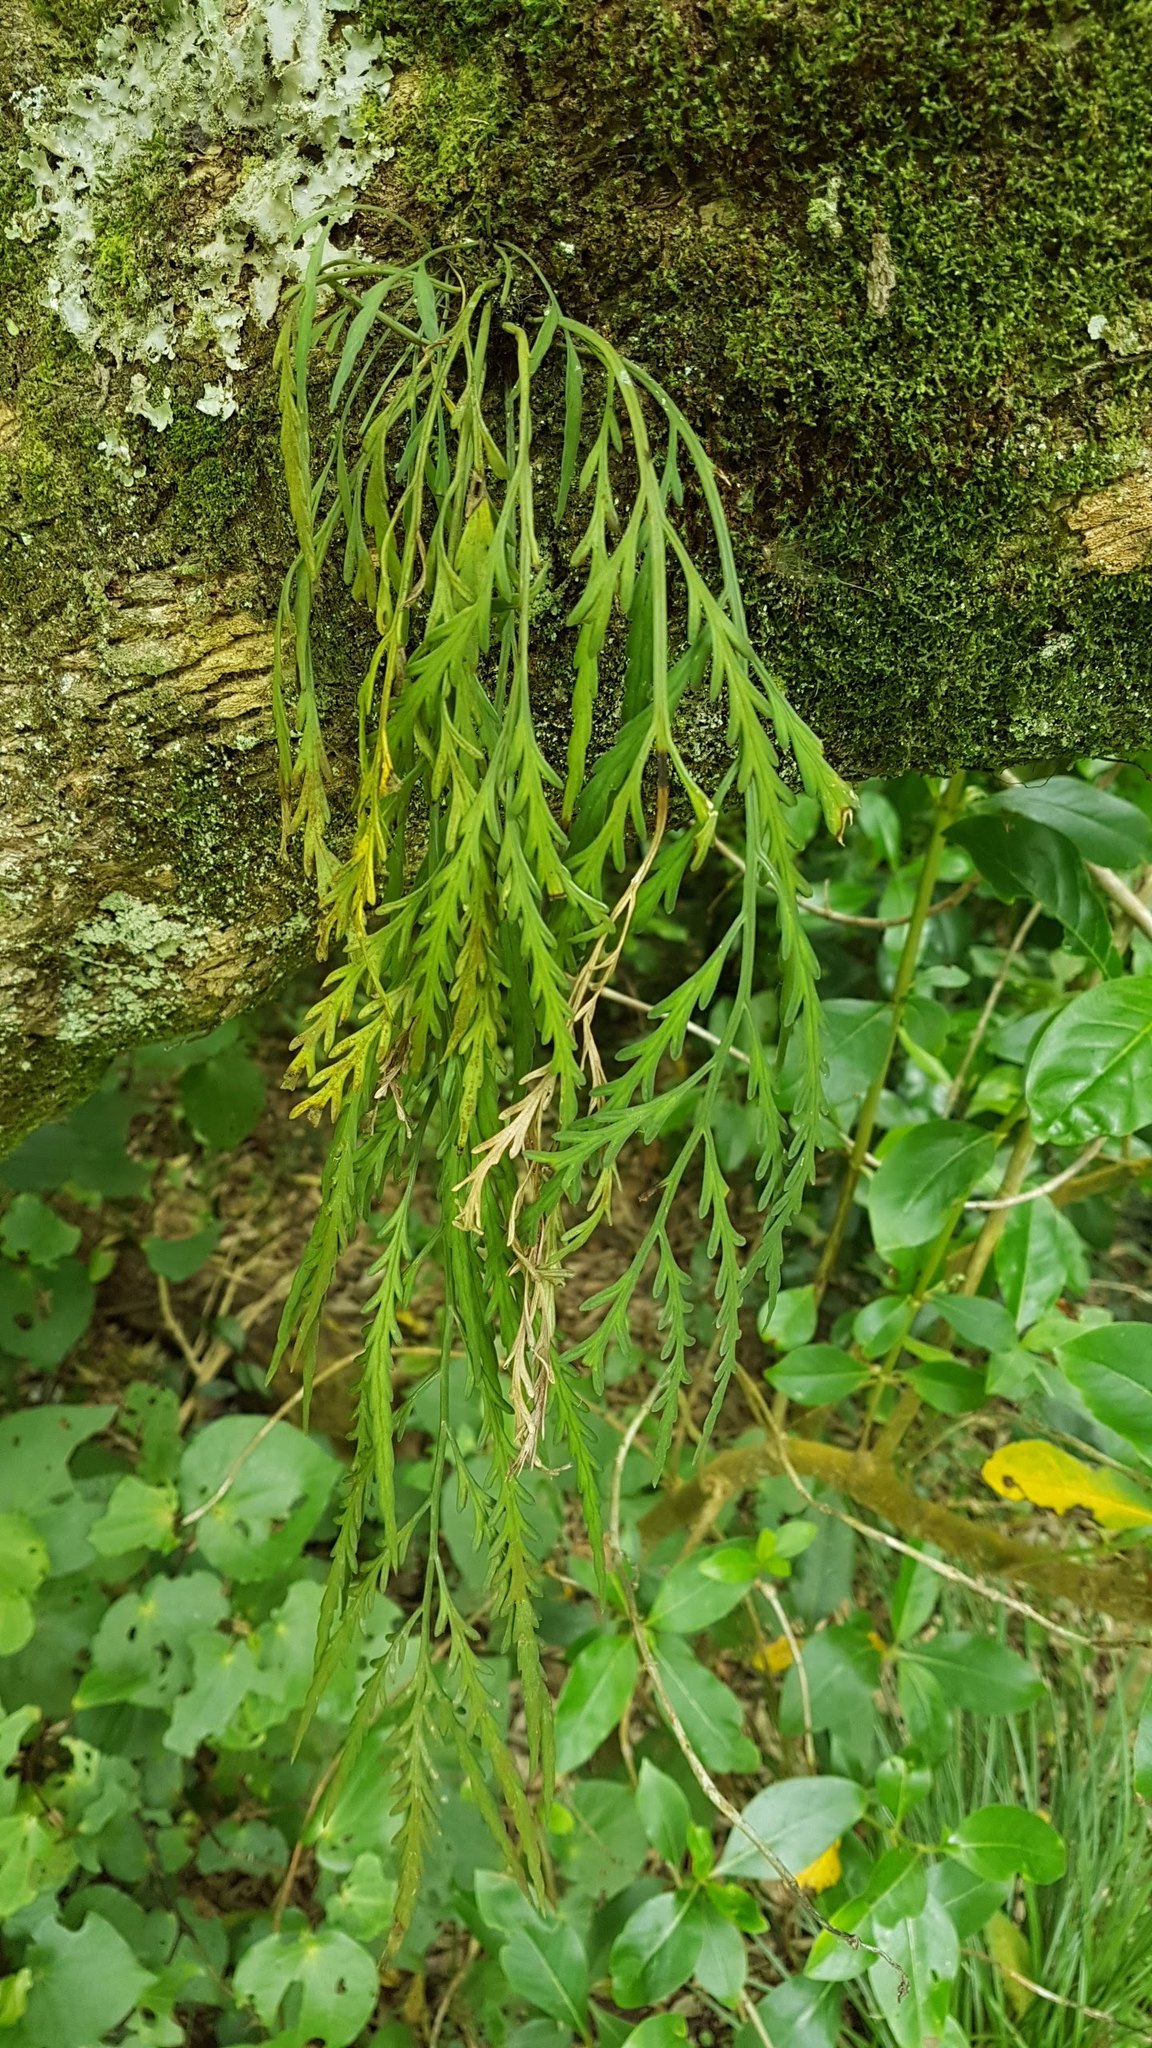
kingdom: Plantae
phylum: Tracheophyta
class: Polypodiopsida
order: Polypodiales
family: Aspleniaceae
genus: Asplenium
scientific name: Asplenium flaccidum
